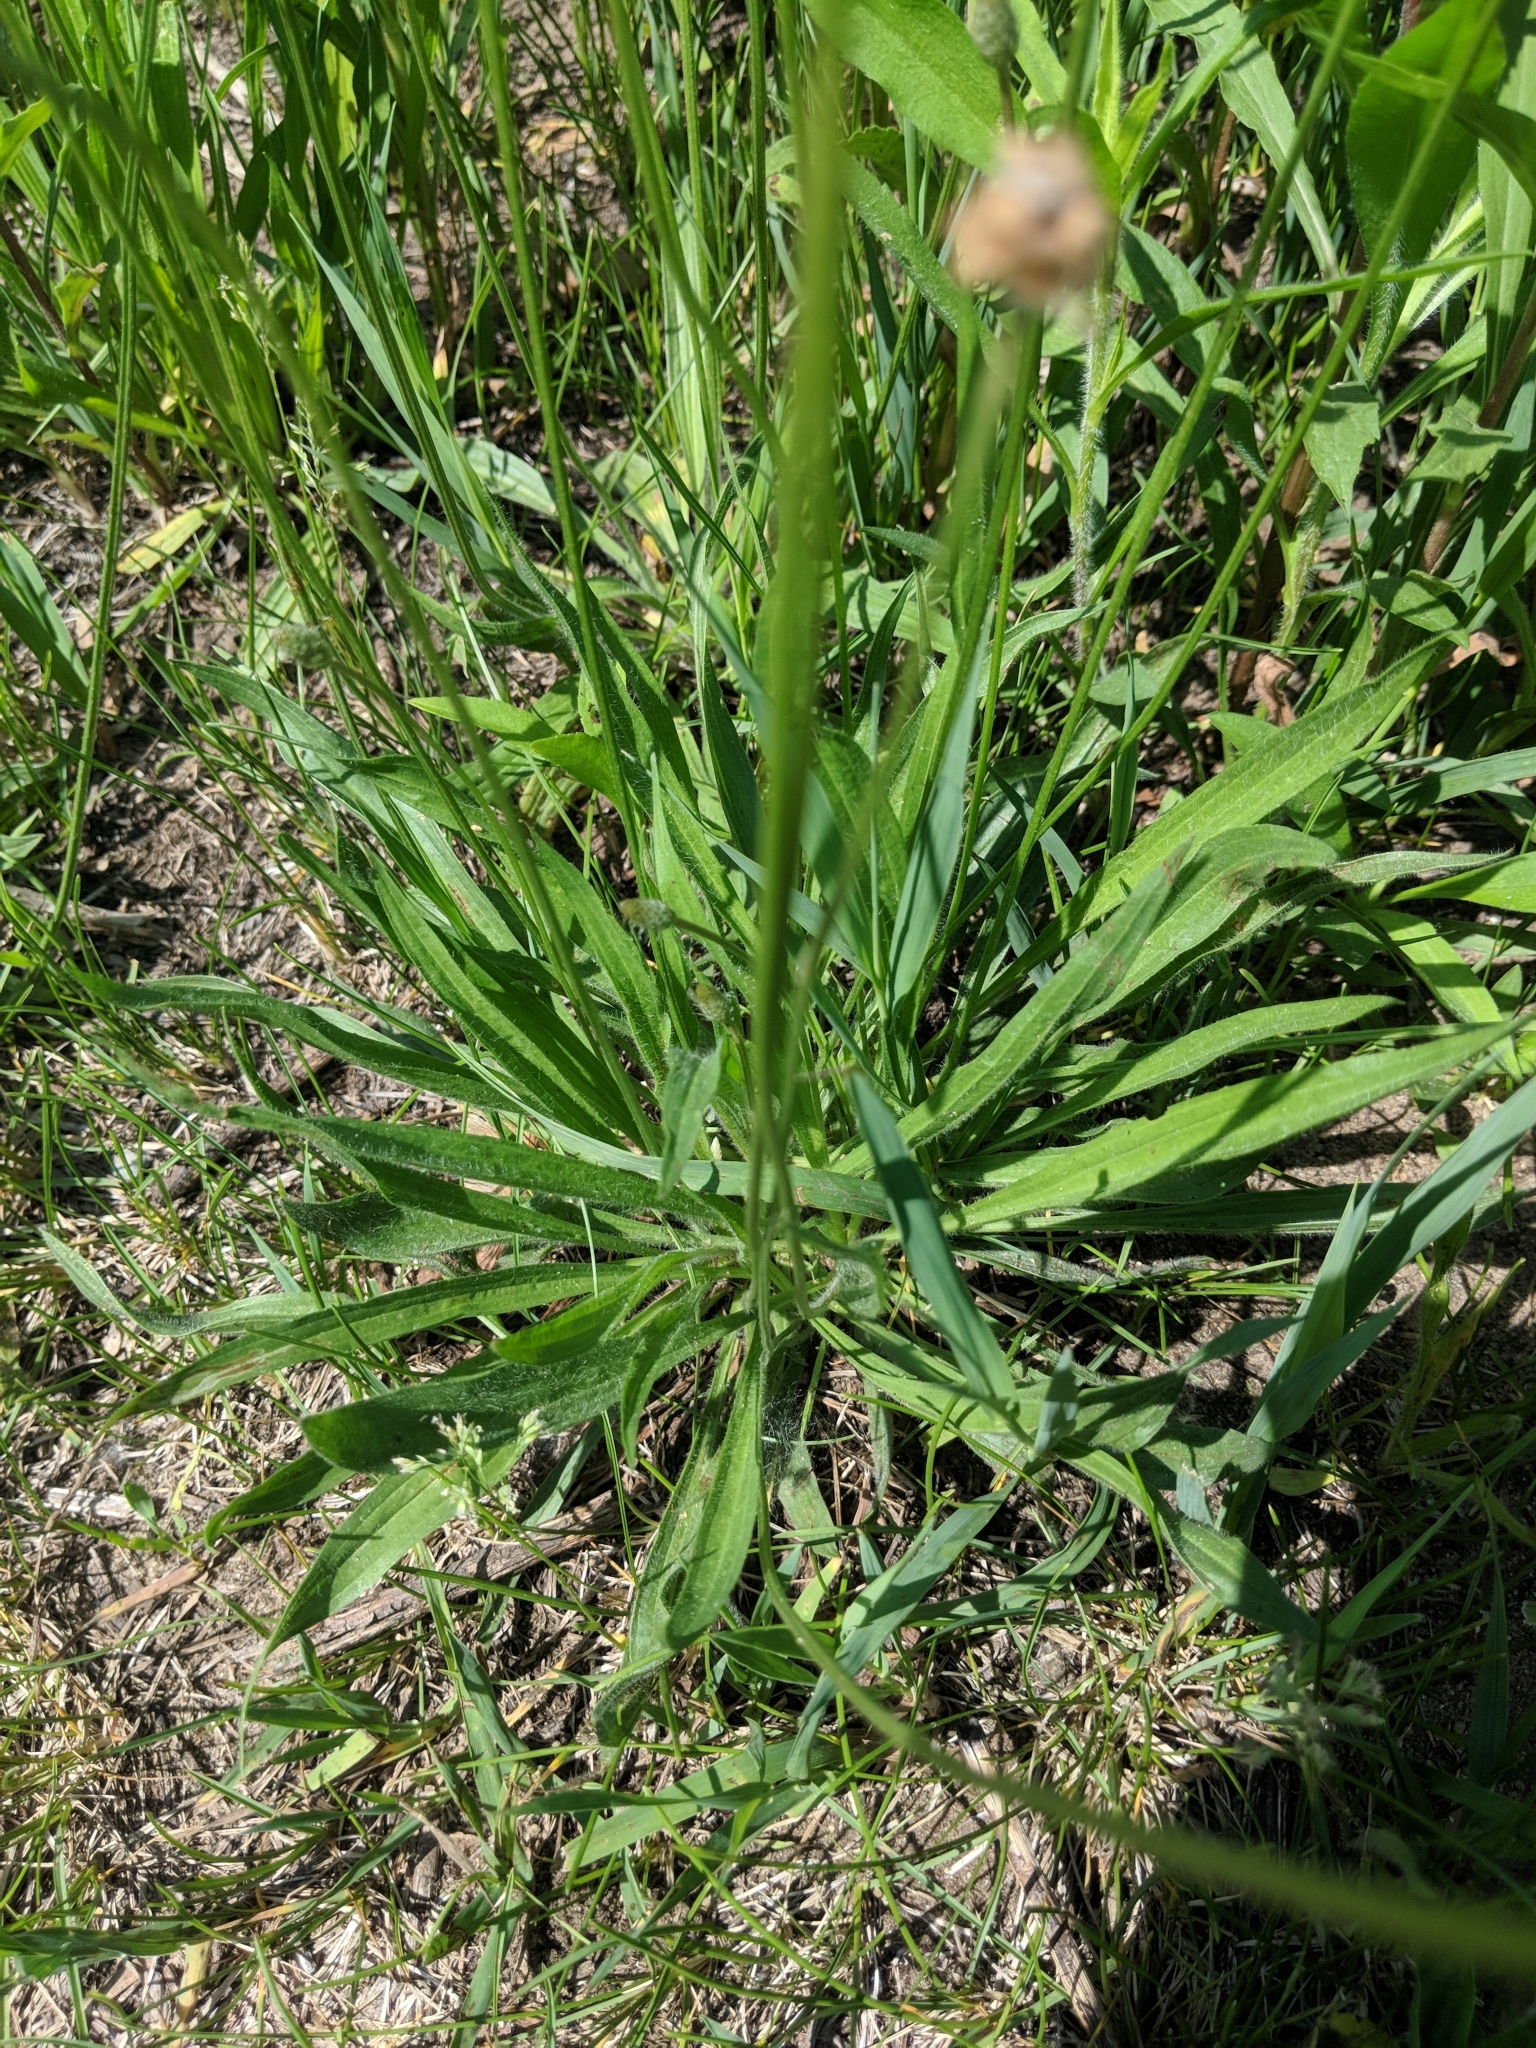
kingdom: Plantae
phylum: Tracheophyta
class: Magnoliopsida
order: Lamiales
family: Plantaginaceae
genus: Plantago
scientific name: Plantago lanceolata
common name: Ribwort plantain
